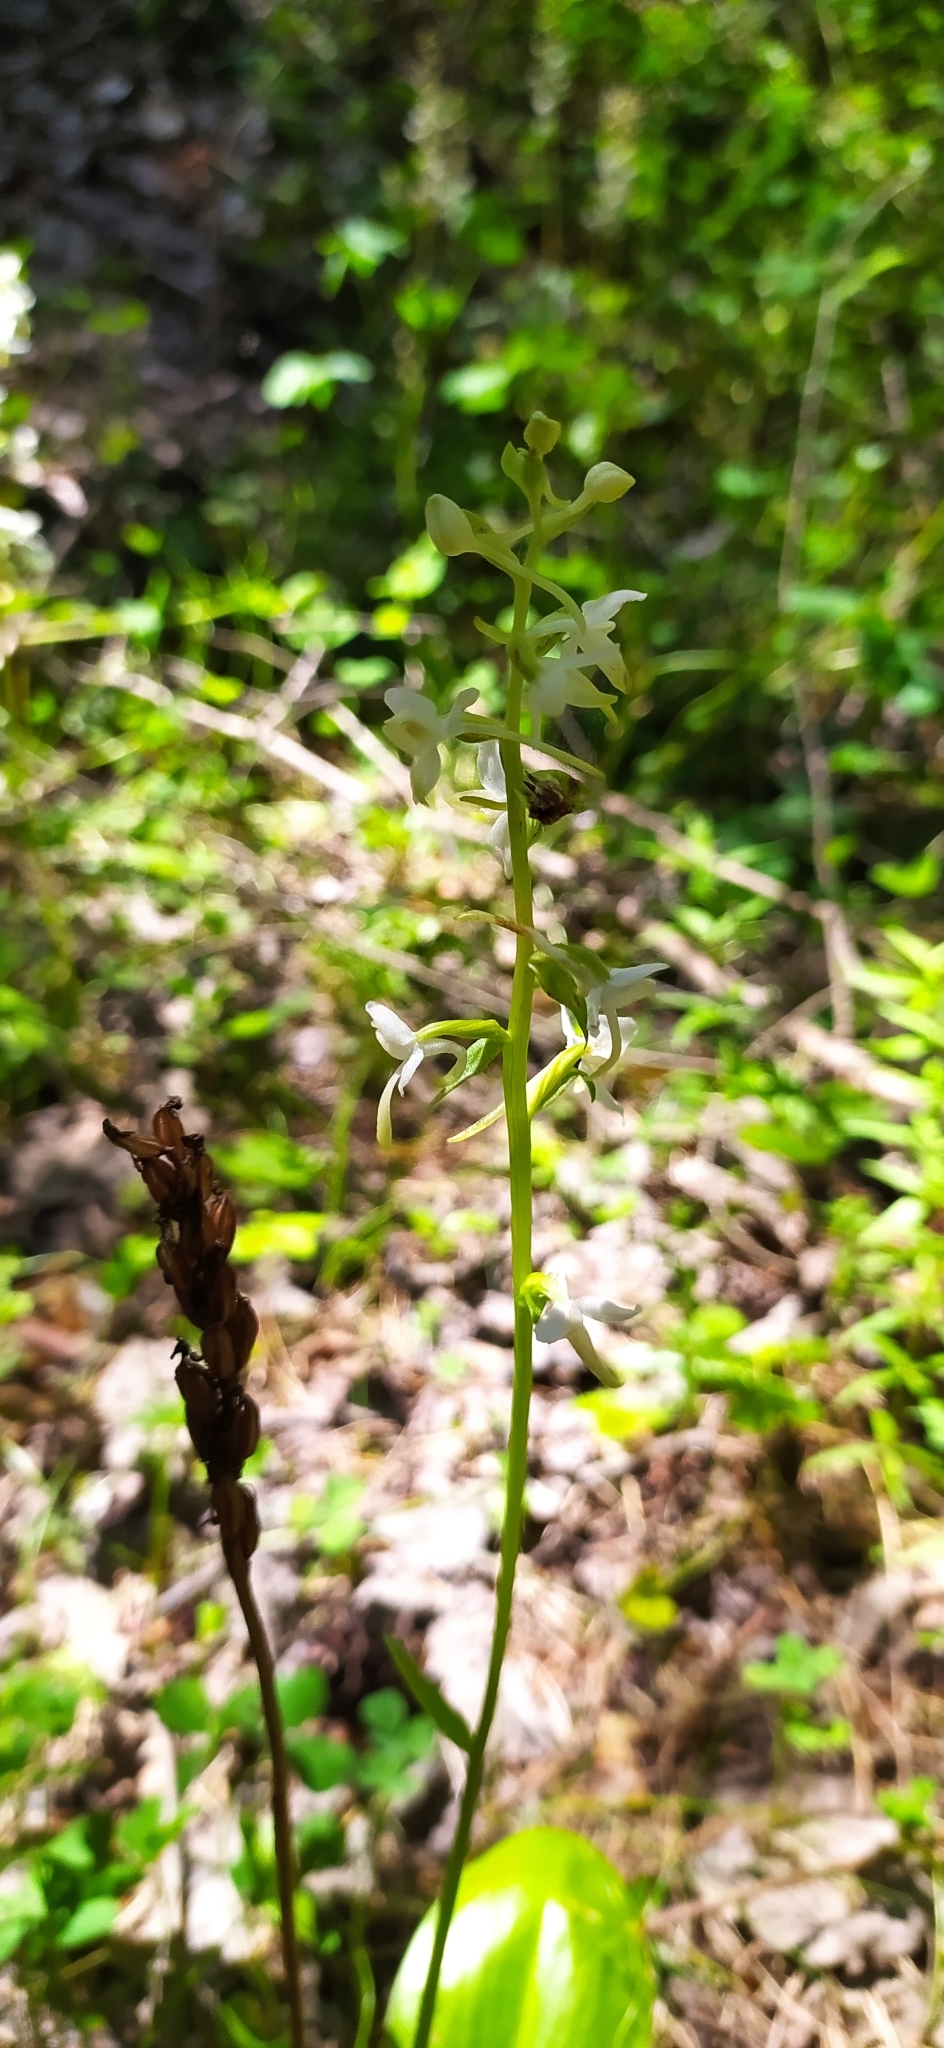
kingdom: Plantae
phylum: Tracheophyta
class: Liliopsida
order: Asparagales
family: Orchidaceae
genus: Platanthera
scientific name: Platanthera bifolia
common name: Lesser butterfly-orchid
